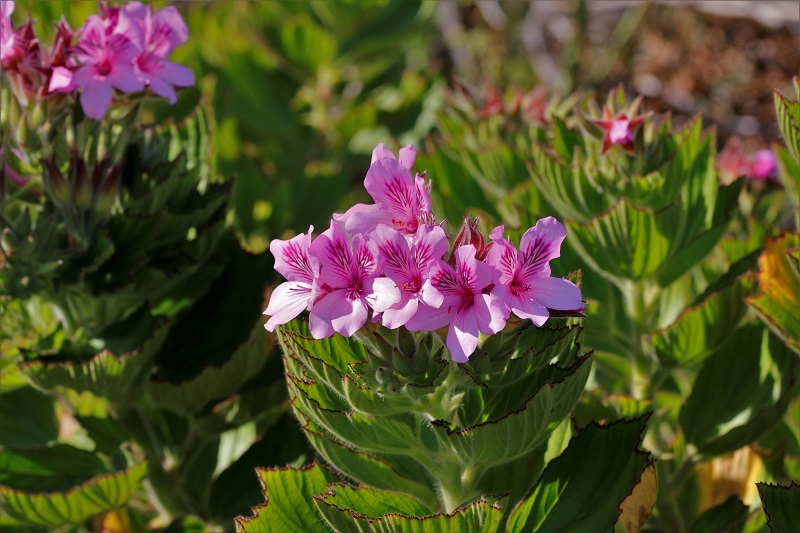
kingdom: Plantae
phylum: Tracheophyta
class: Magnoliopsida
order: Geraniales
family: Geraniaceae
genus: Pelargonium
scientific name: Pelargonium cucullatum
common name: Tree pelargonium
